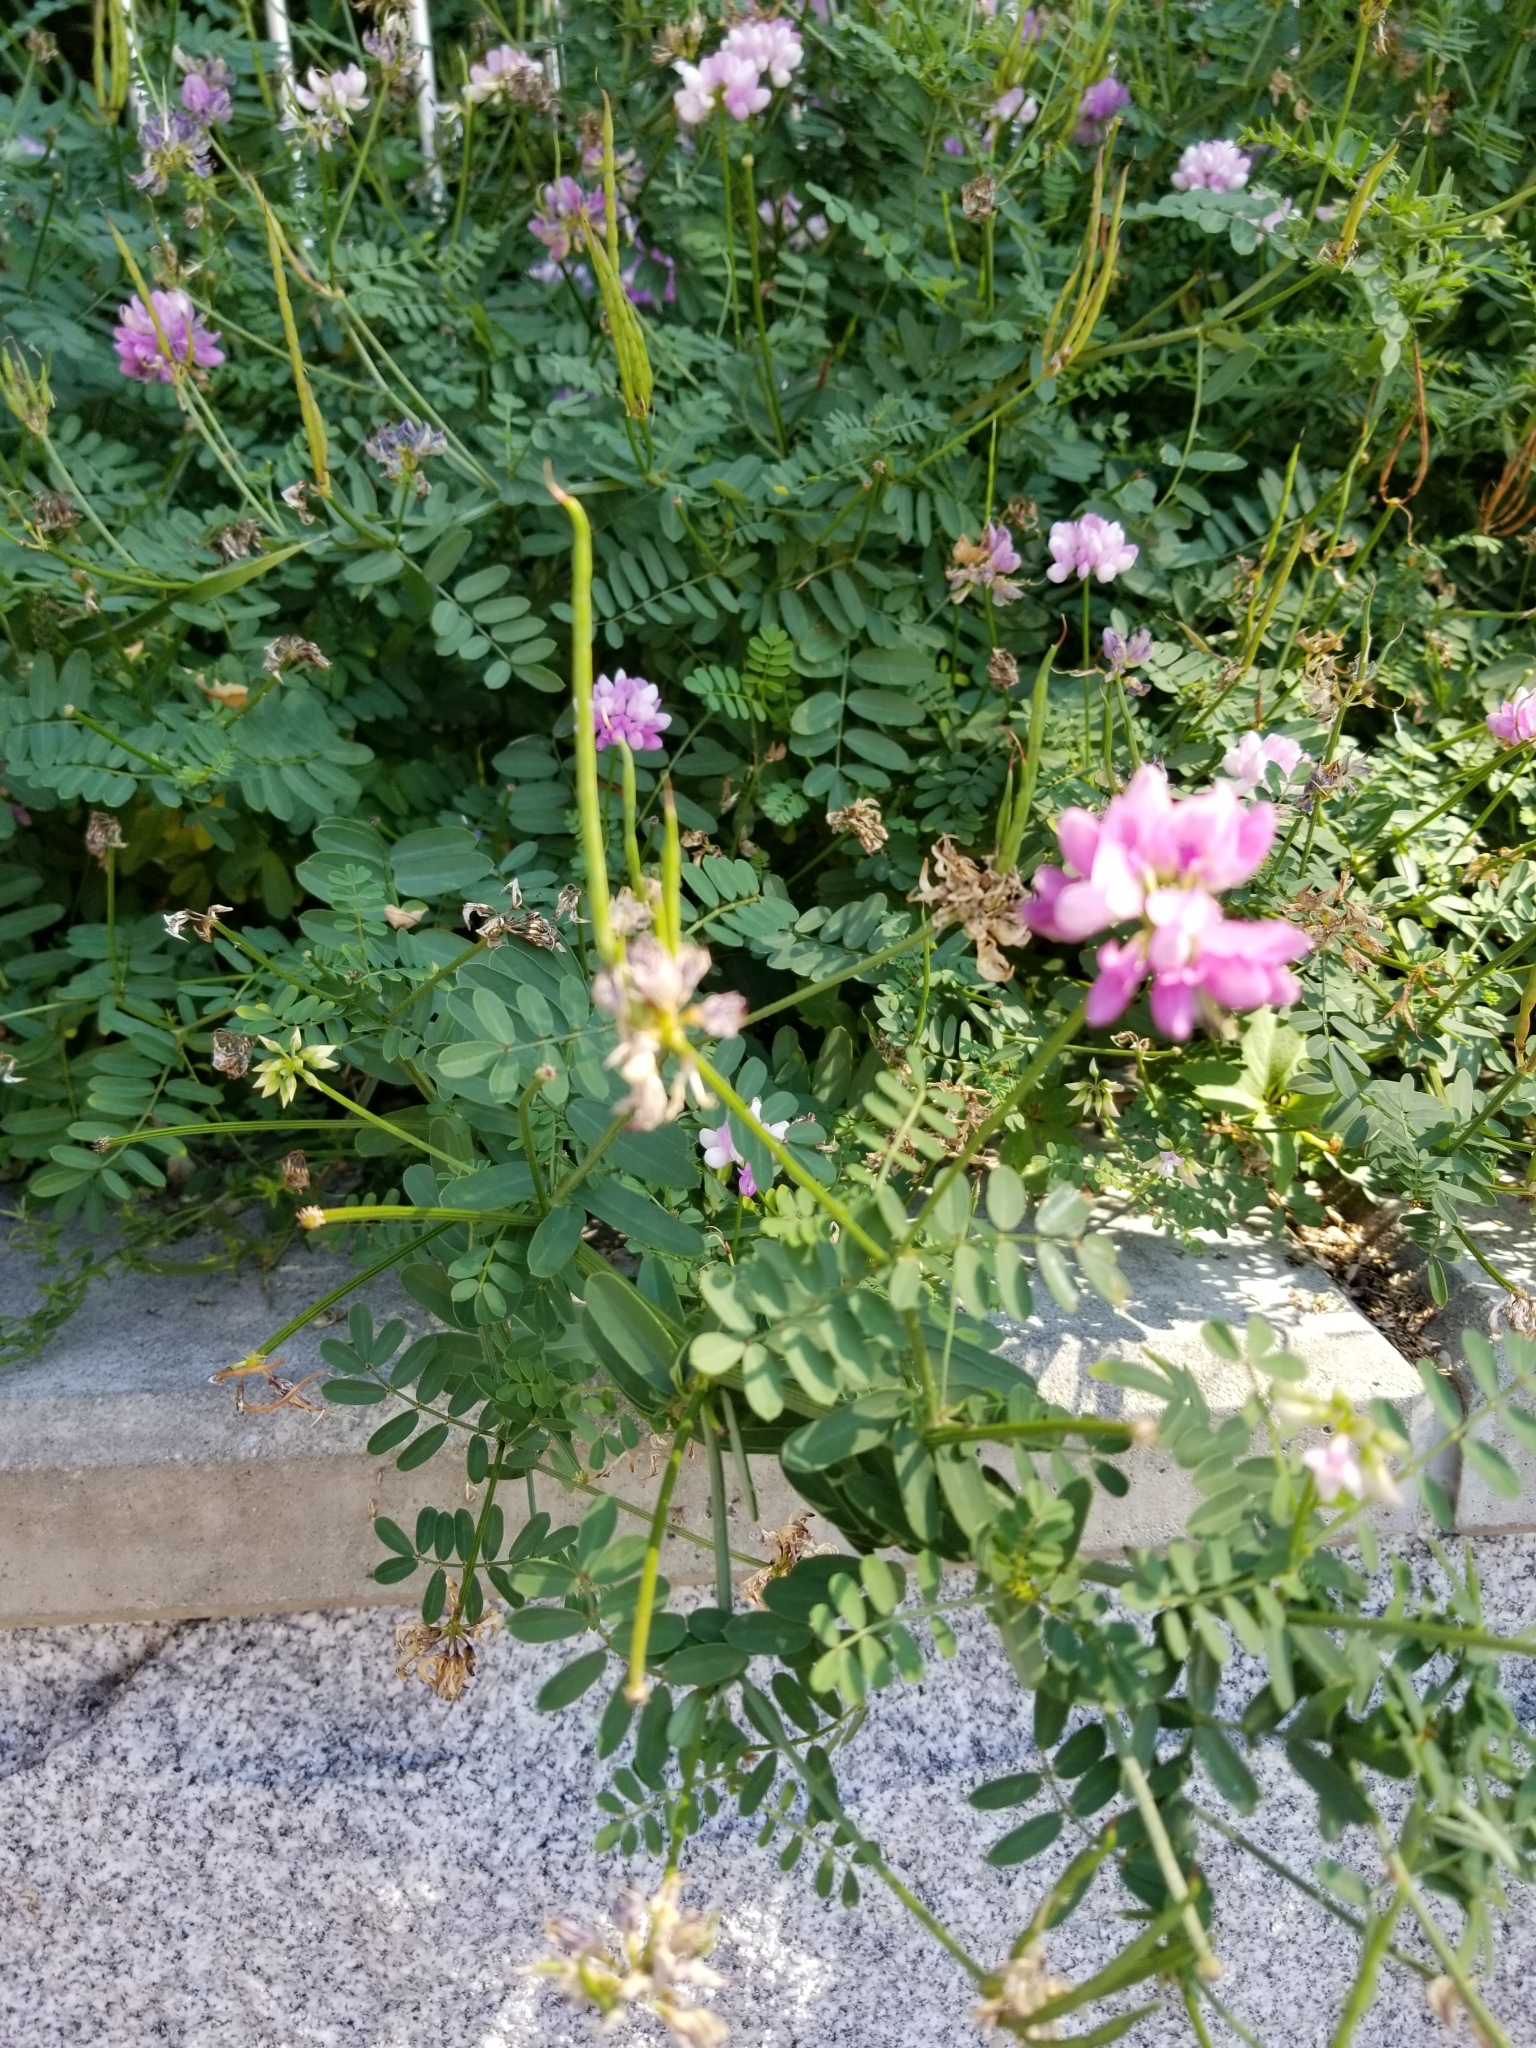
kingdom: Plantae
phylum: Tracheophyta
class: Magnoliopsida
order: Fabales
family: Fabaceae
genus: Coronilla
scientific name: Coronilla varia
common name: Crownvetch
